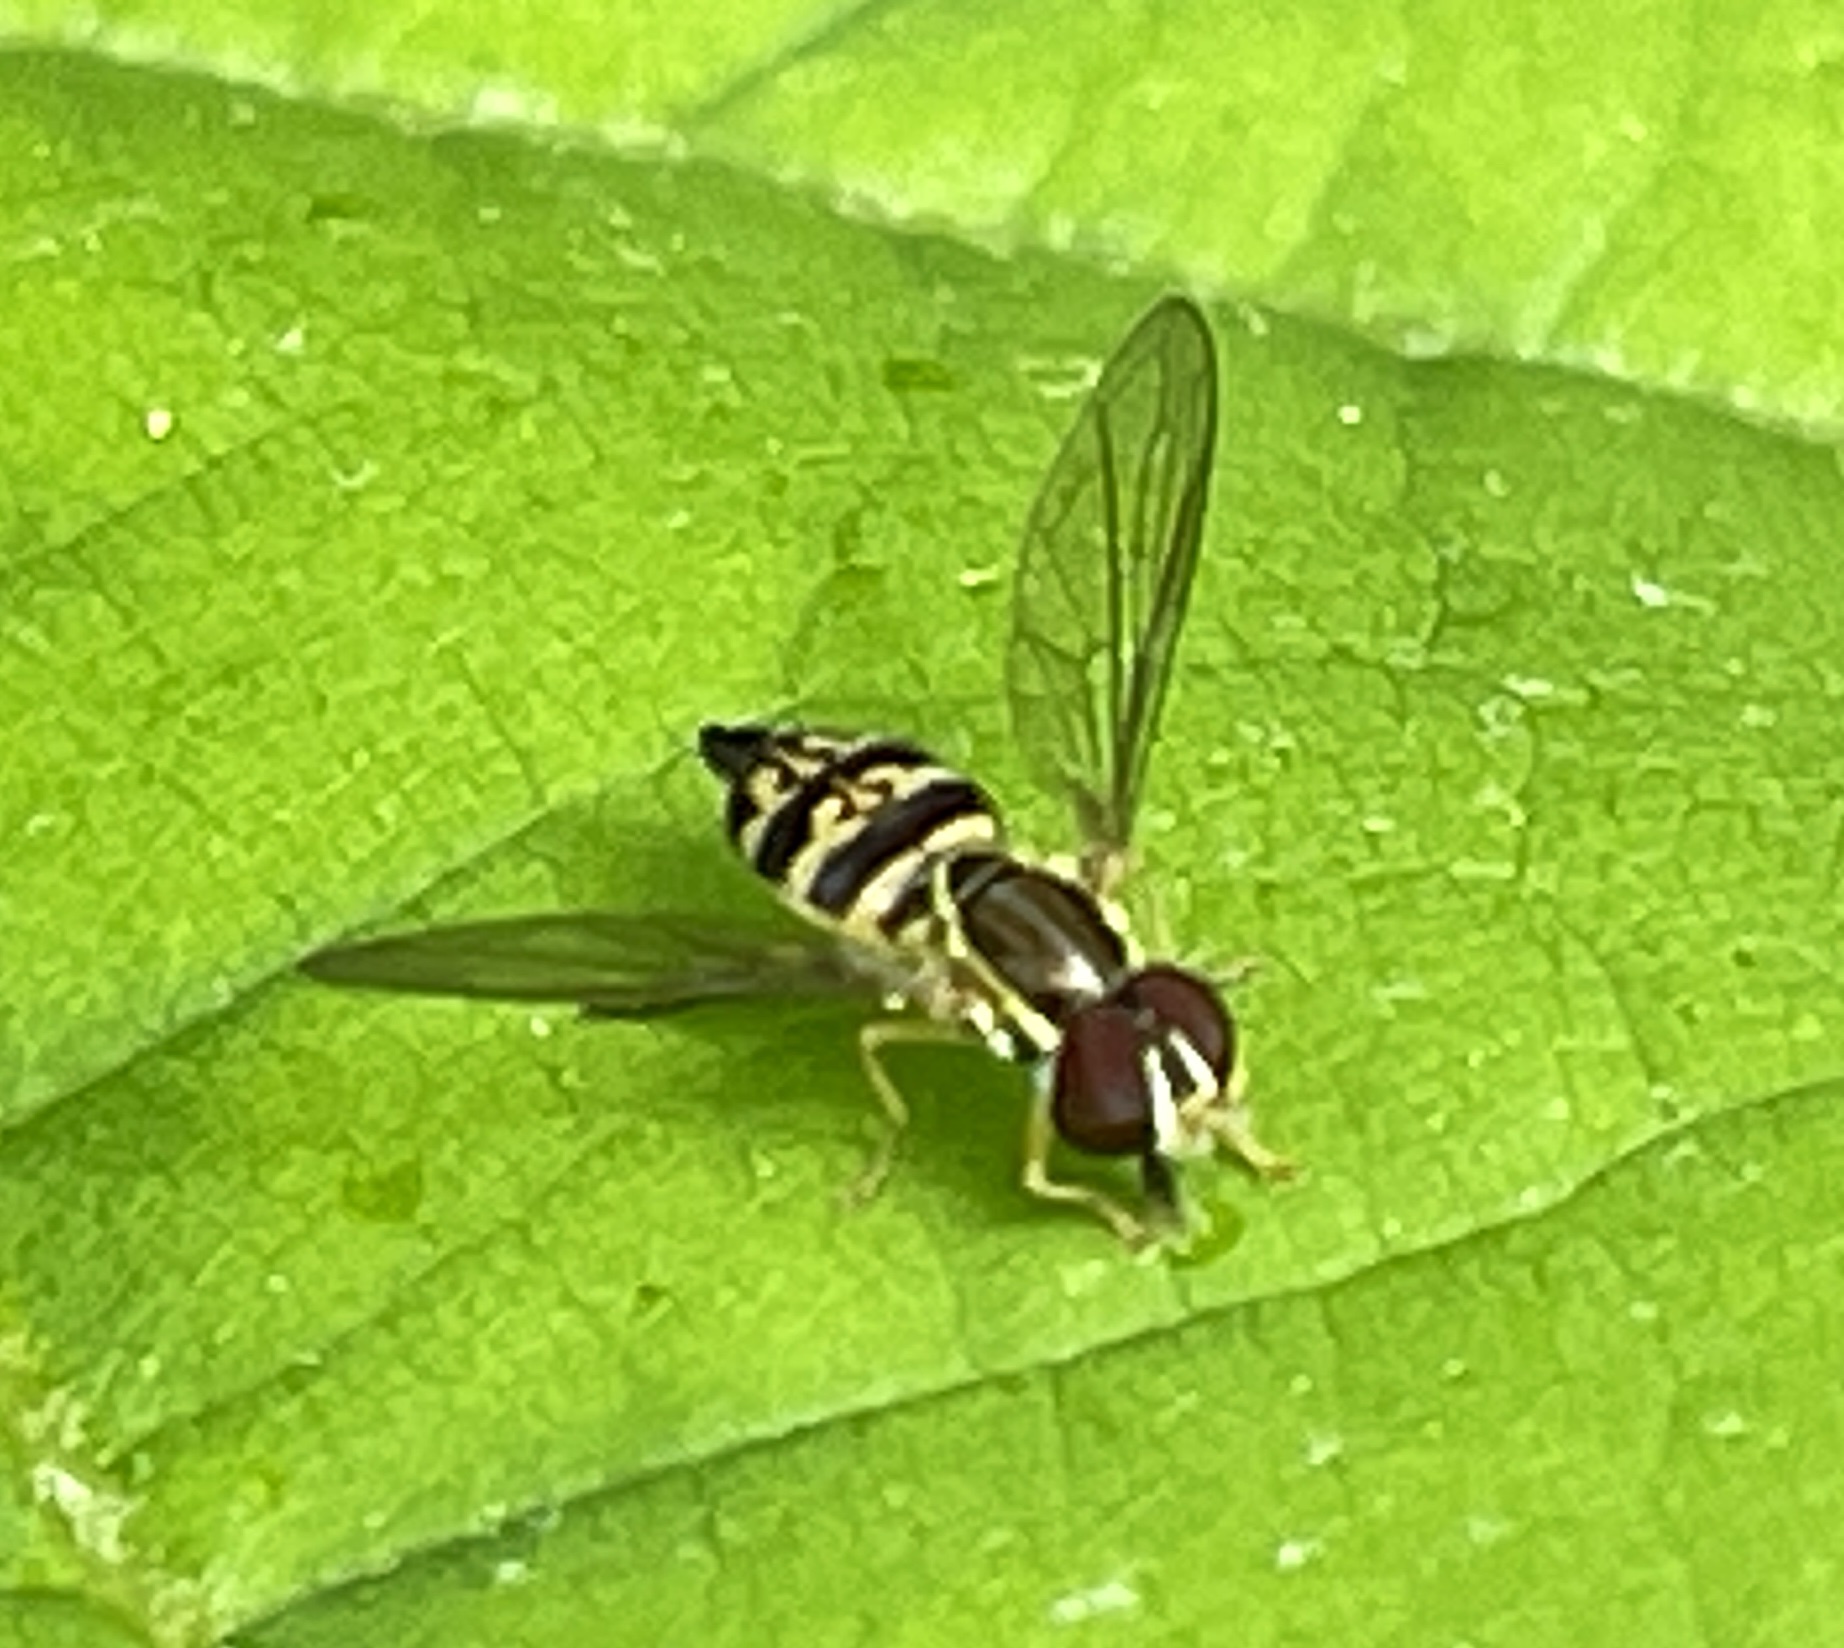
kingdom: Animalia
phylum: Arthropoda
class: Insecta
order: Diptera
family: Syrphidae
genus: Toxomerus
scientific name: Toxomerus geminatus
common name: Eastern calligrapher
